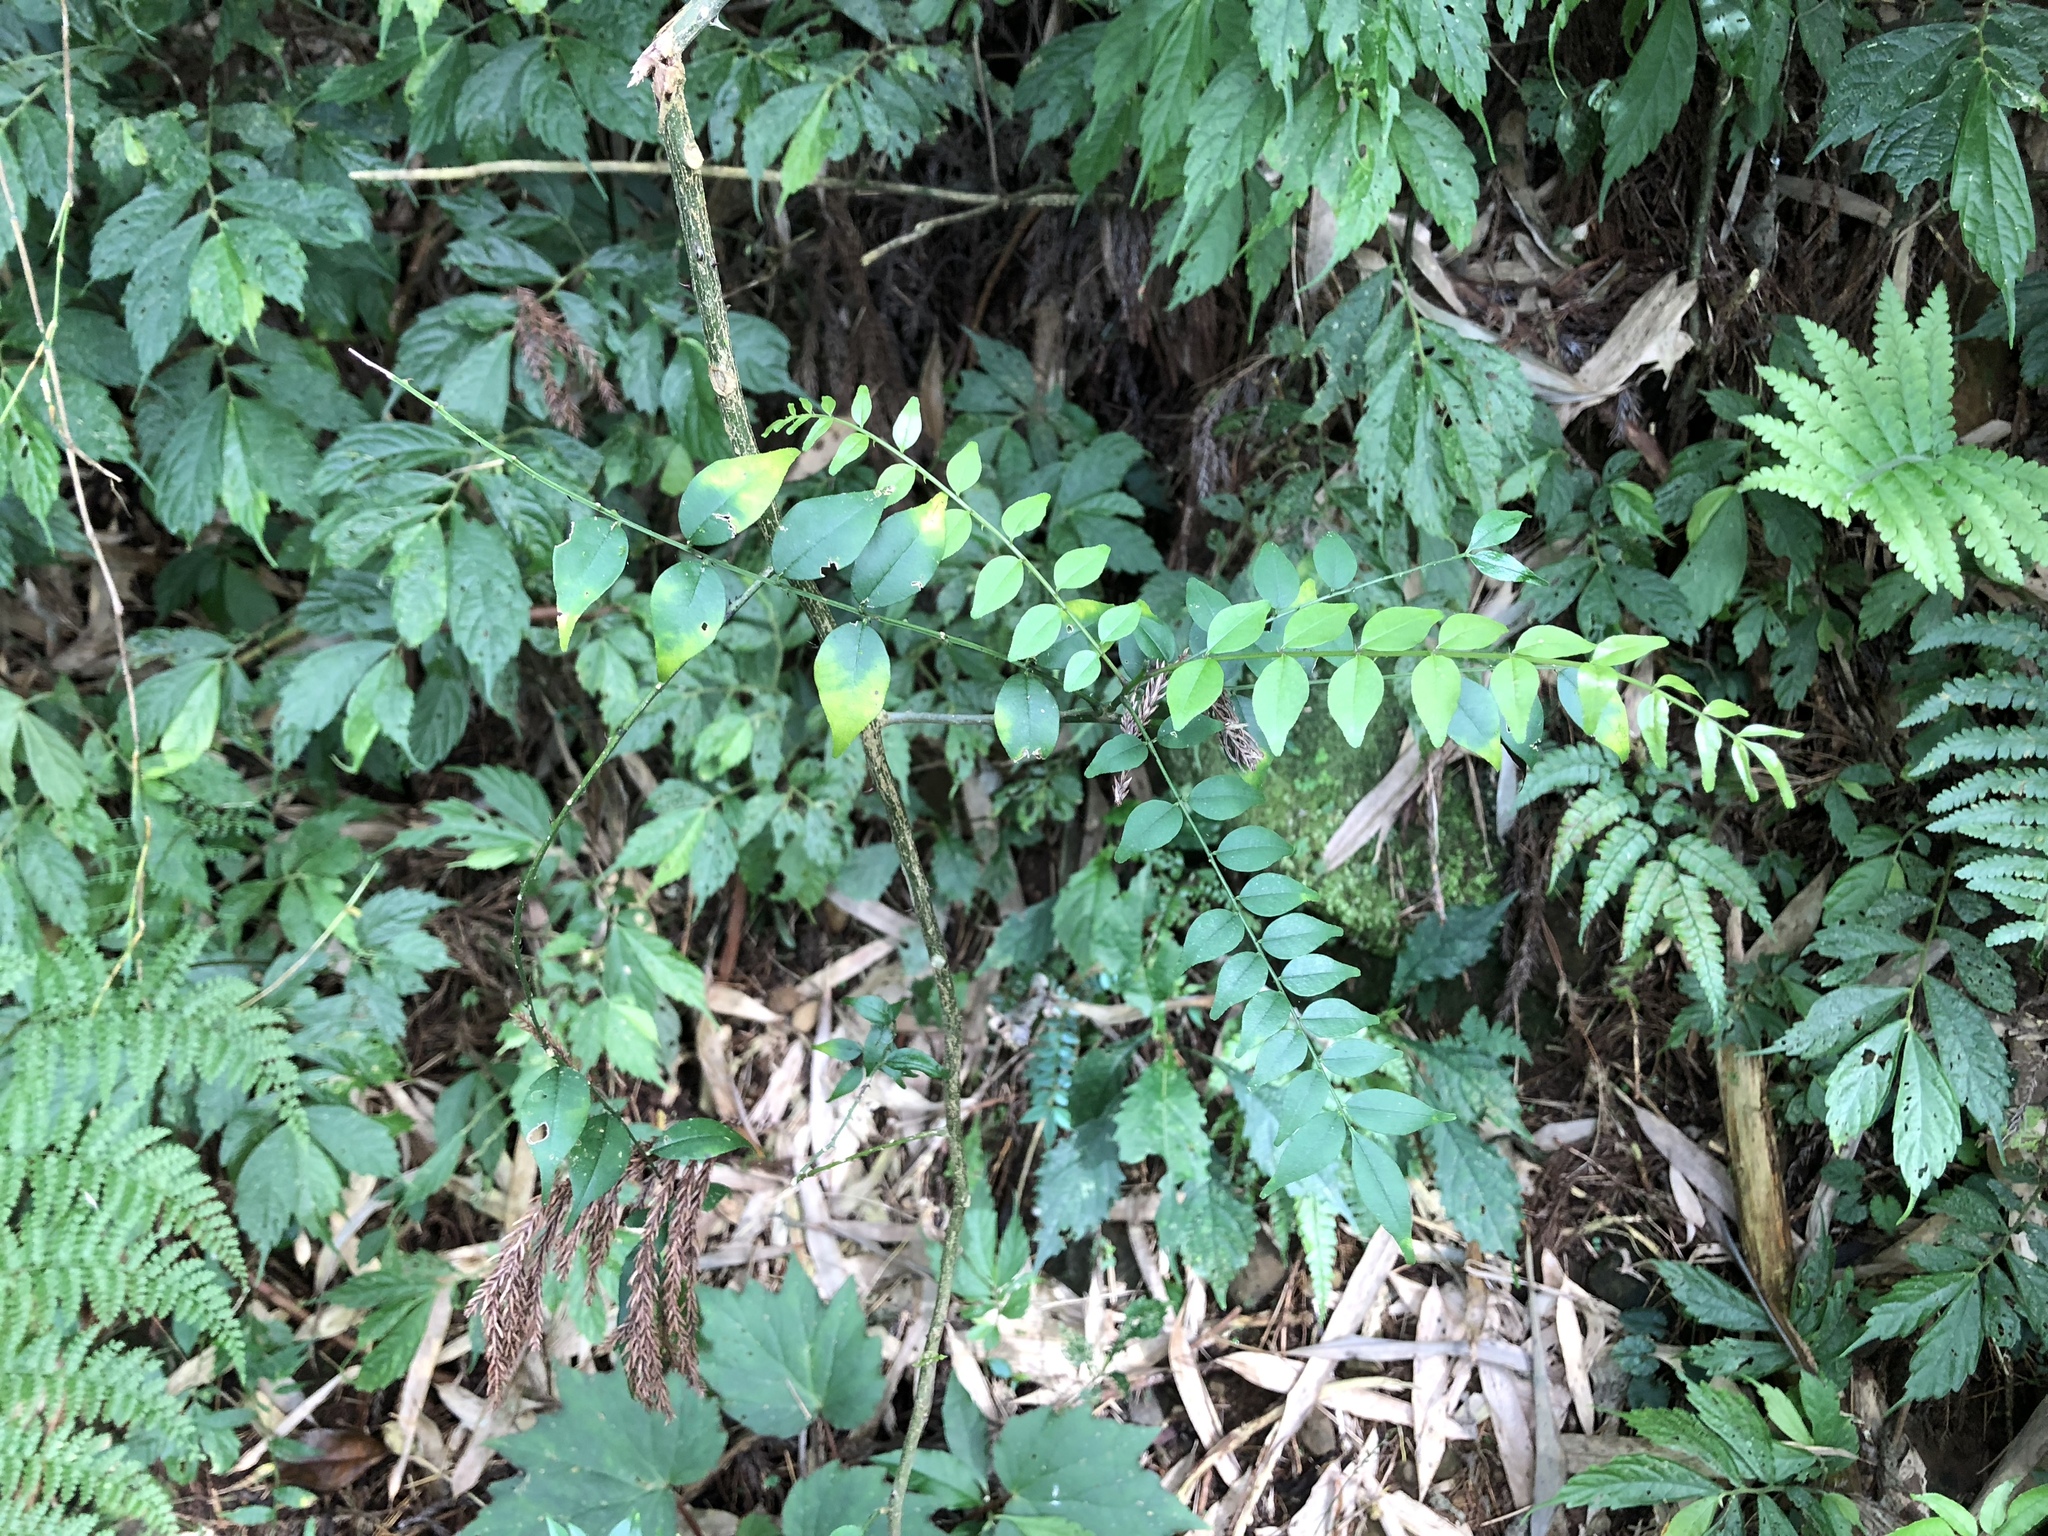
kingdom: Plantae
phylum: Tracheophyta
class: Magnoliopsida
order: Sapindales
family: Rutaceae
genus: Zanthoxylum
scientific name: Zanthoxylum scandens
